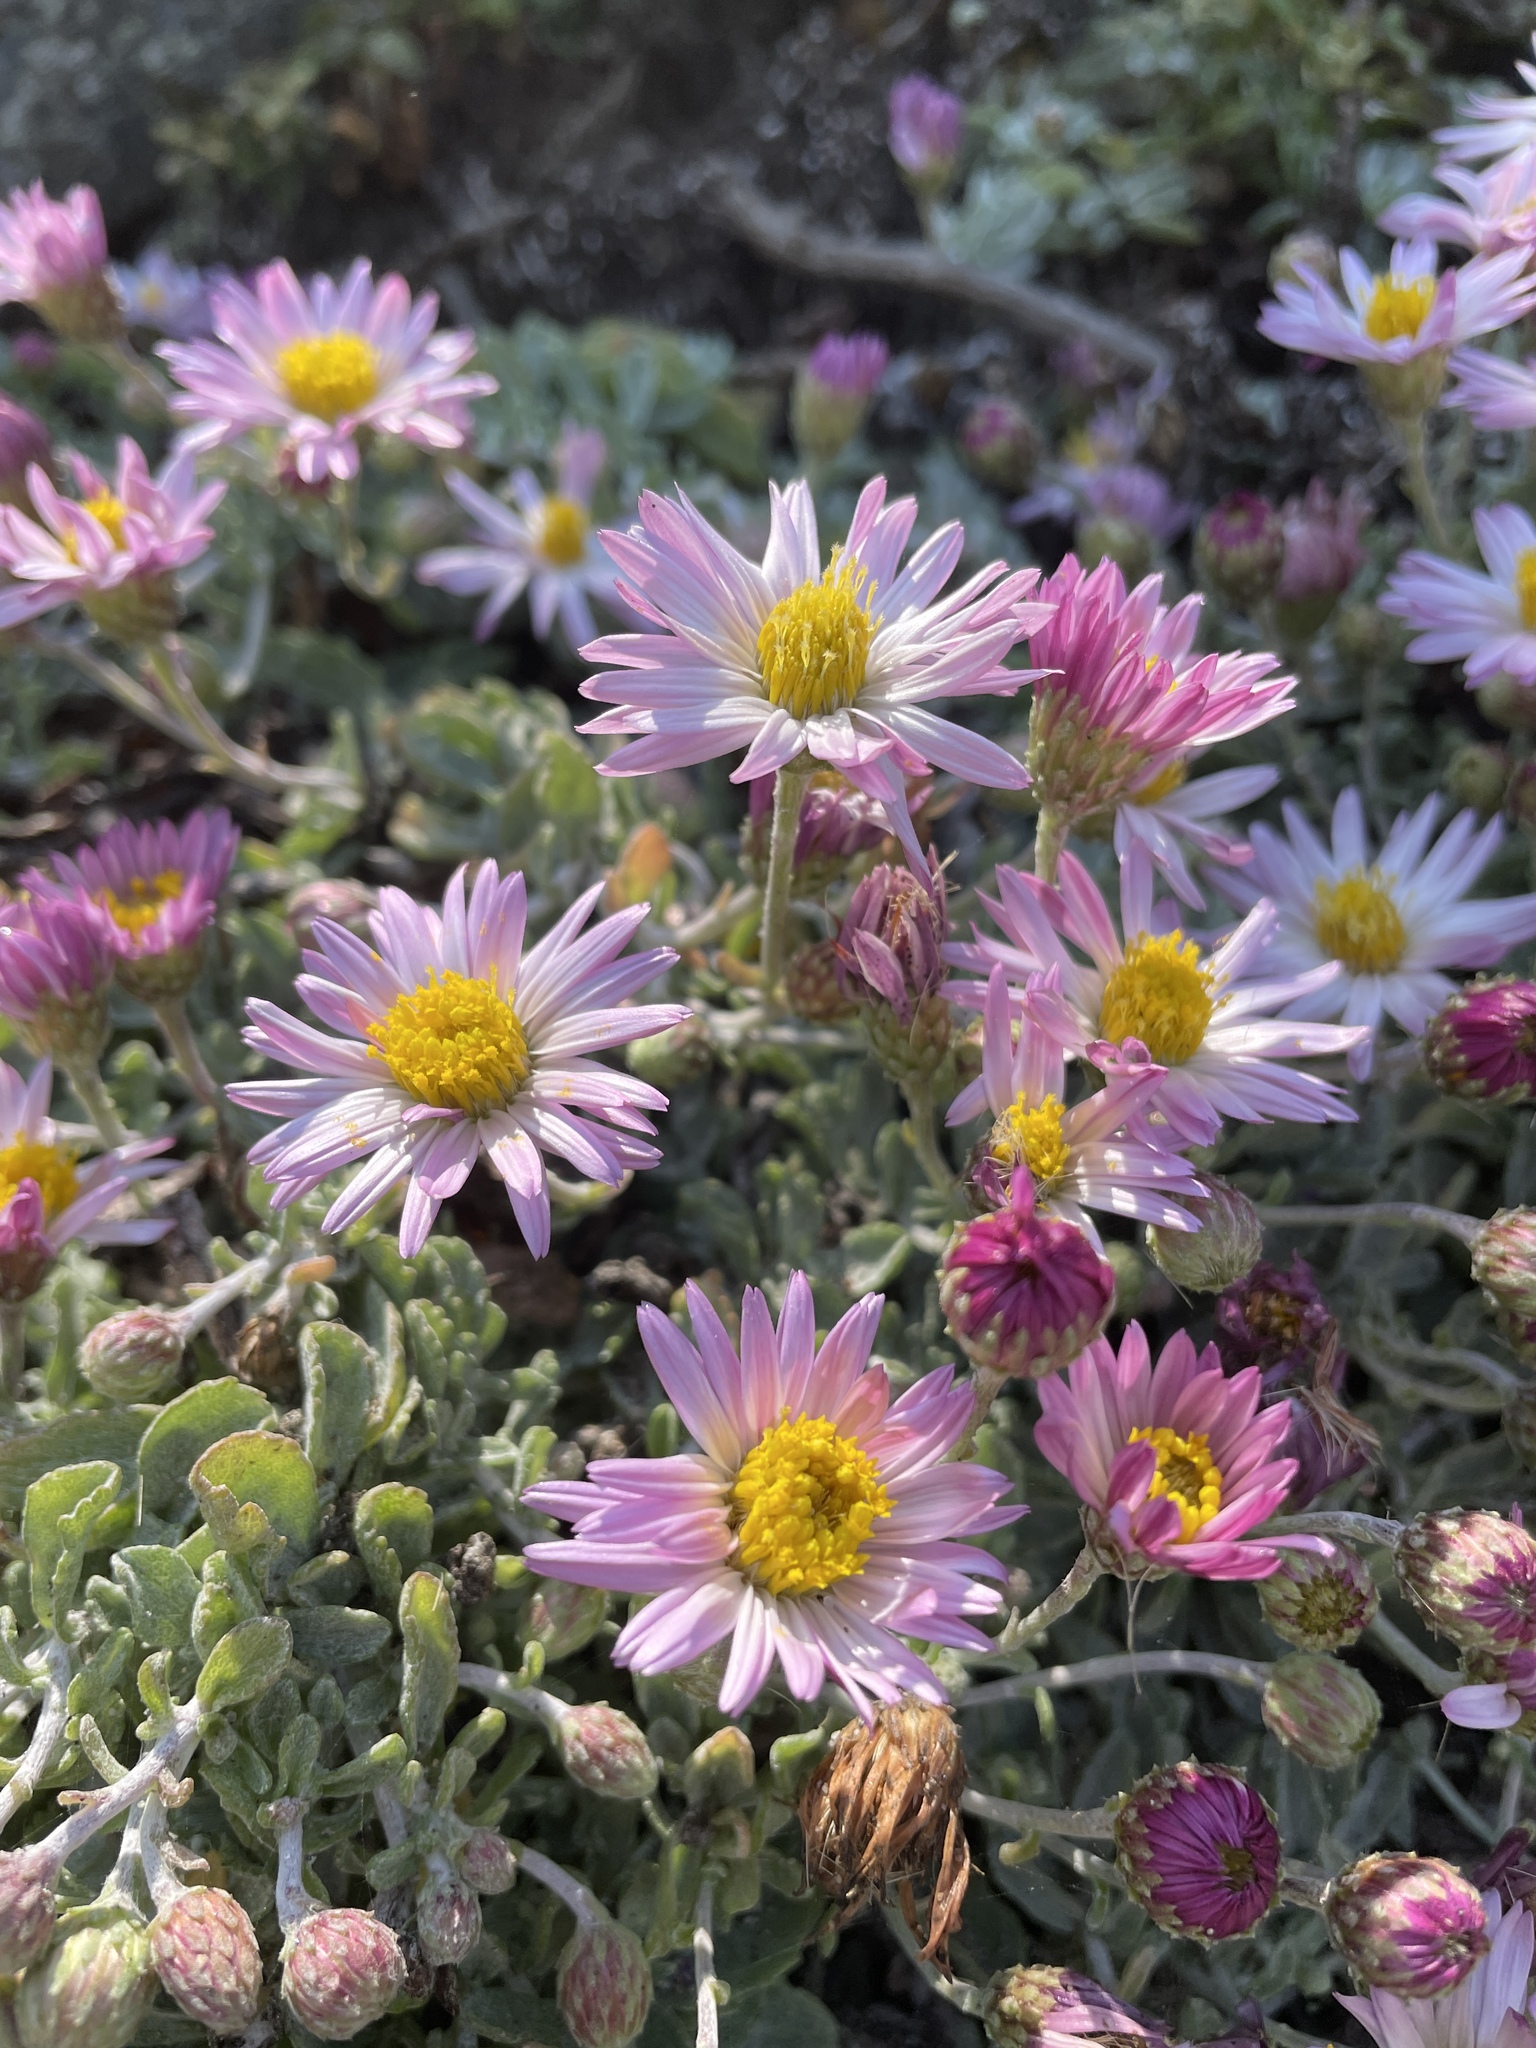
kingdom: Plantae
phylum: Tracheophyta
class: Magnoliopsida
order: Asterales
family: Asteraceae
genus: Corethrogyne
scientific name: Corethrogyne filaginifolia
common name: Sand-aster
